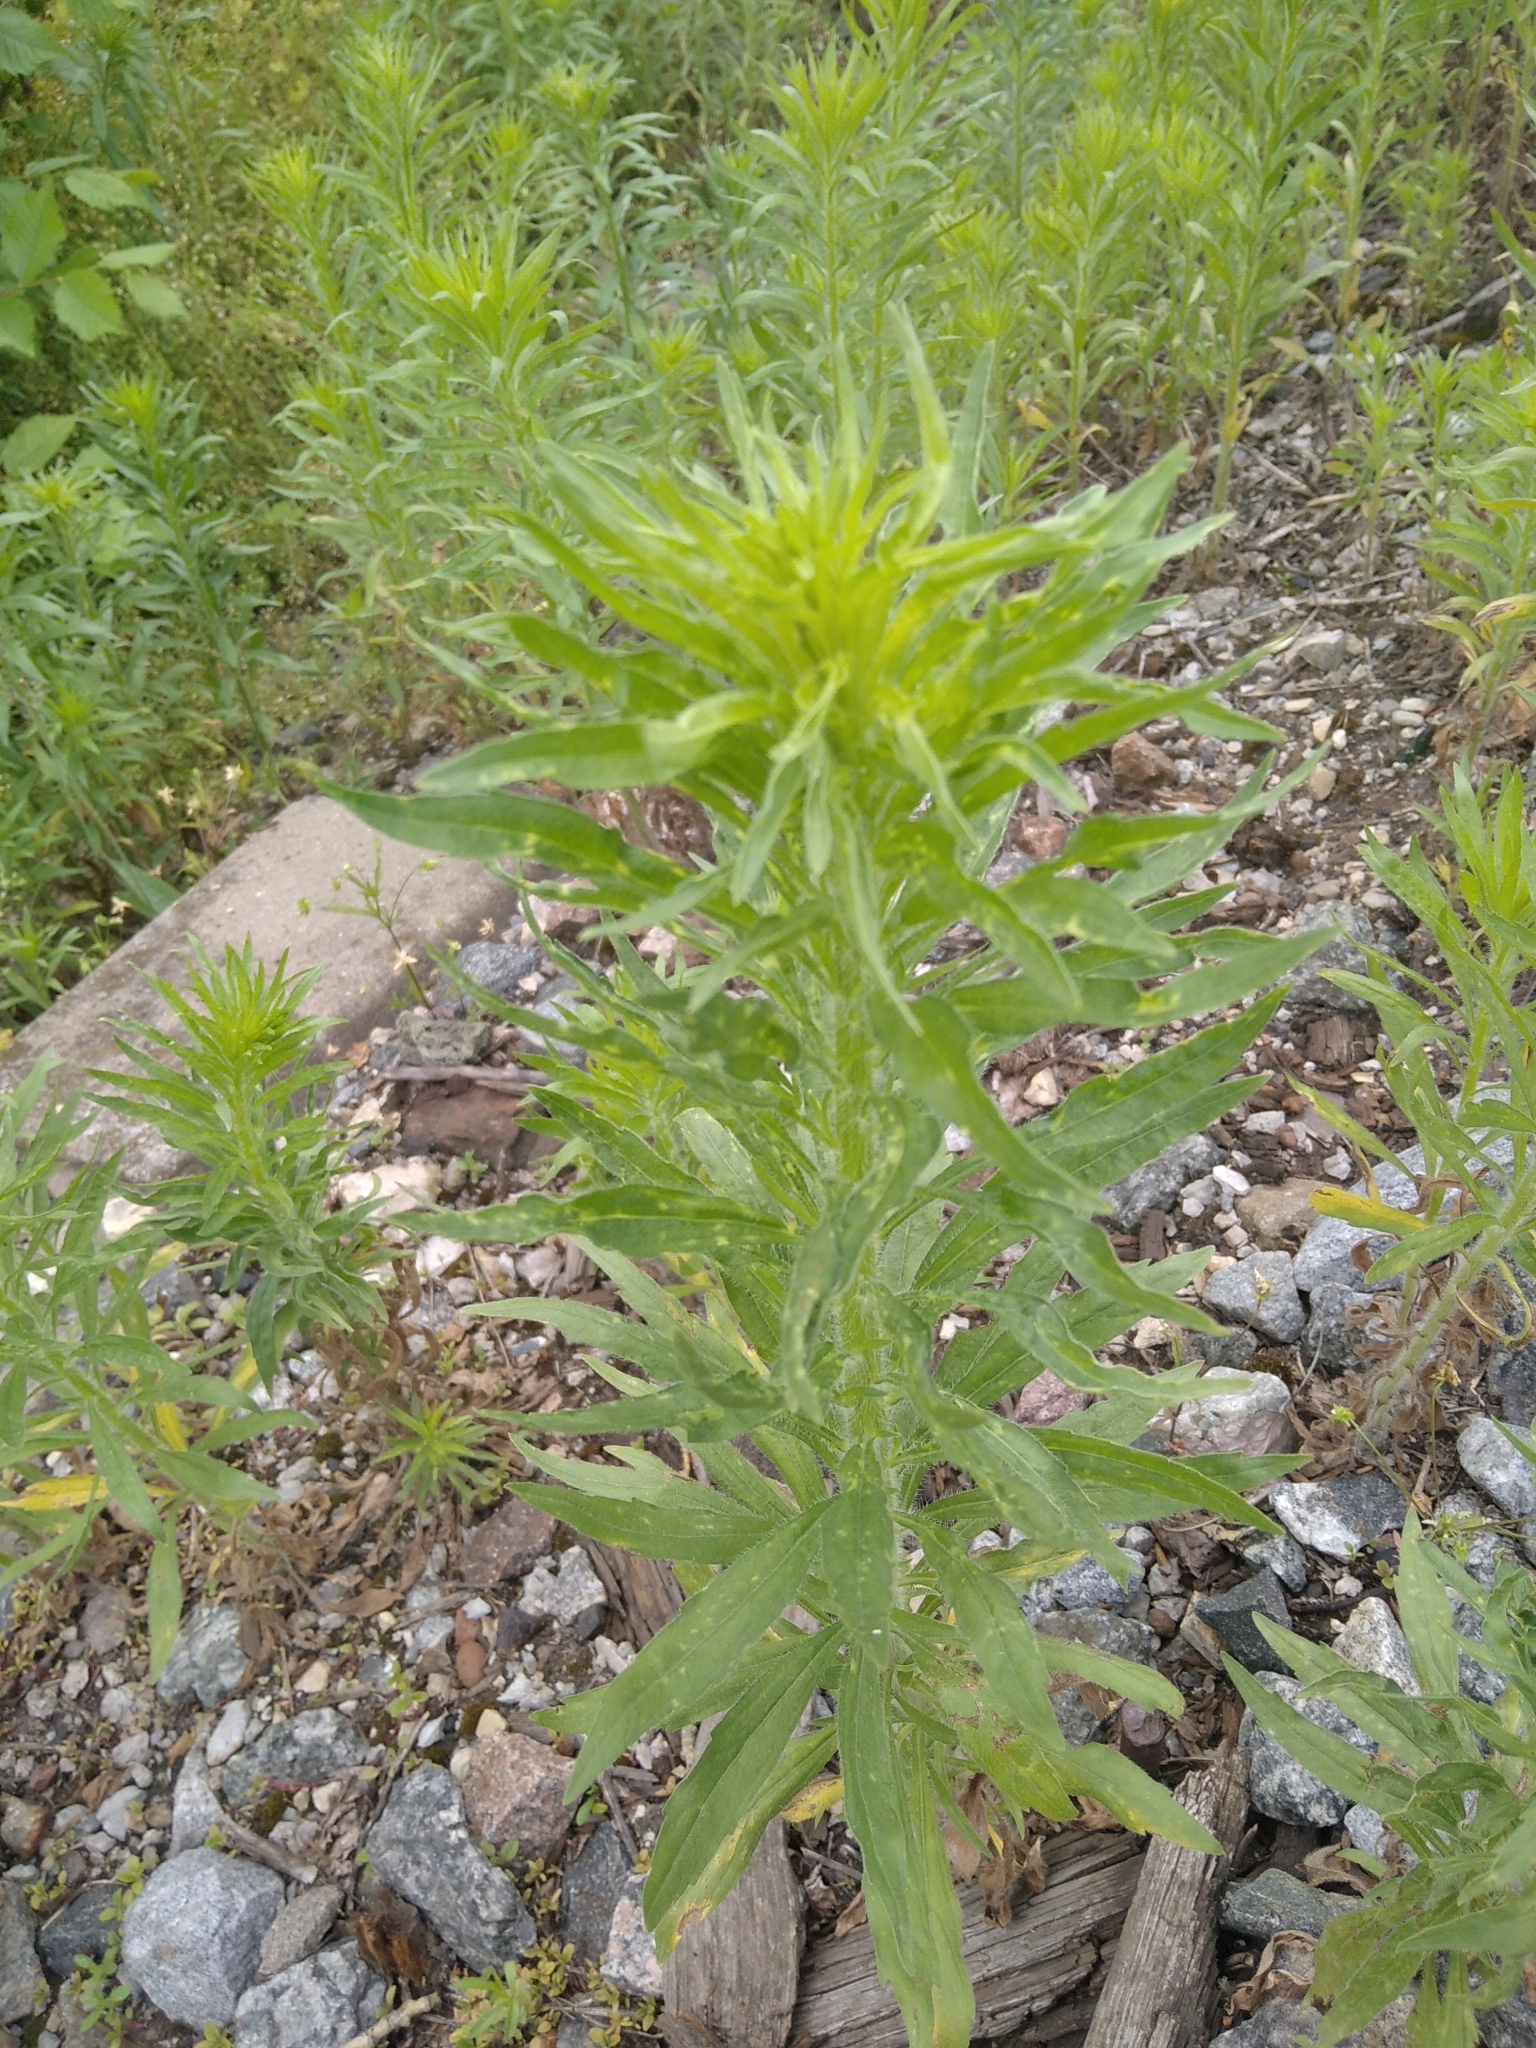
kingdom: Plantae
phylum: Tracheophyta
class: Magnoliopsida
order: Asterales
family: Asteraceae
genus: Erigeron
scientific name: Erigeron canadensis
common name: Canadian fleabane
